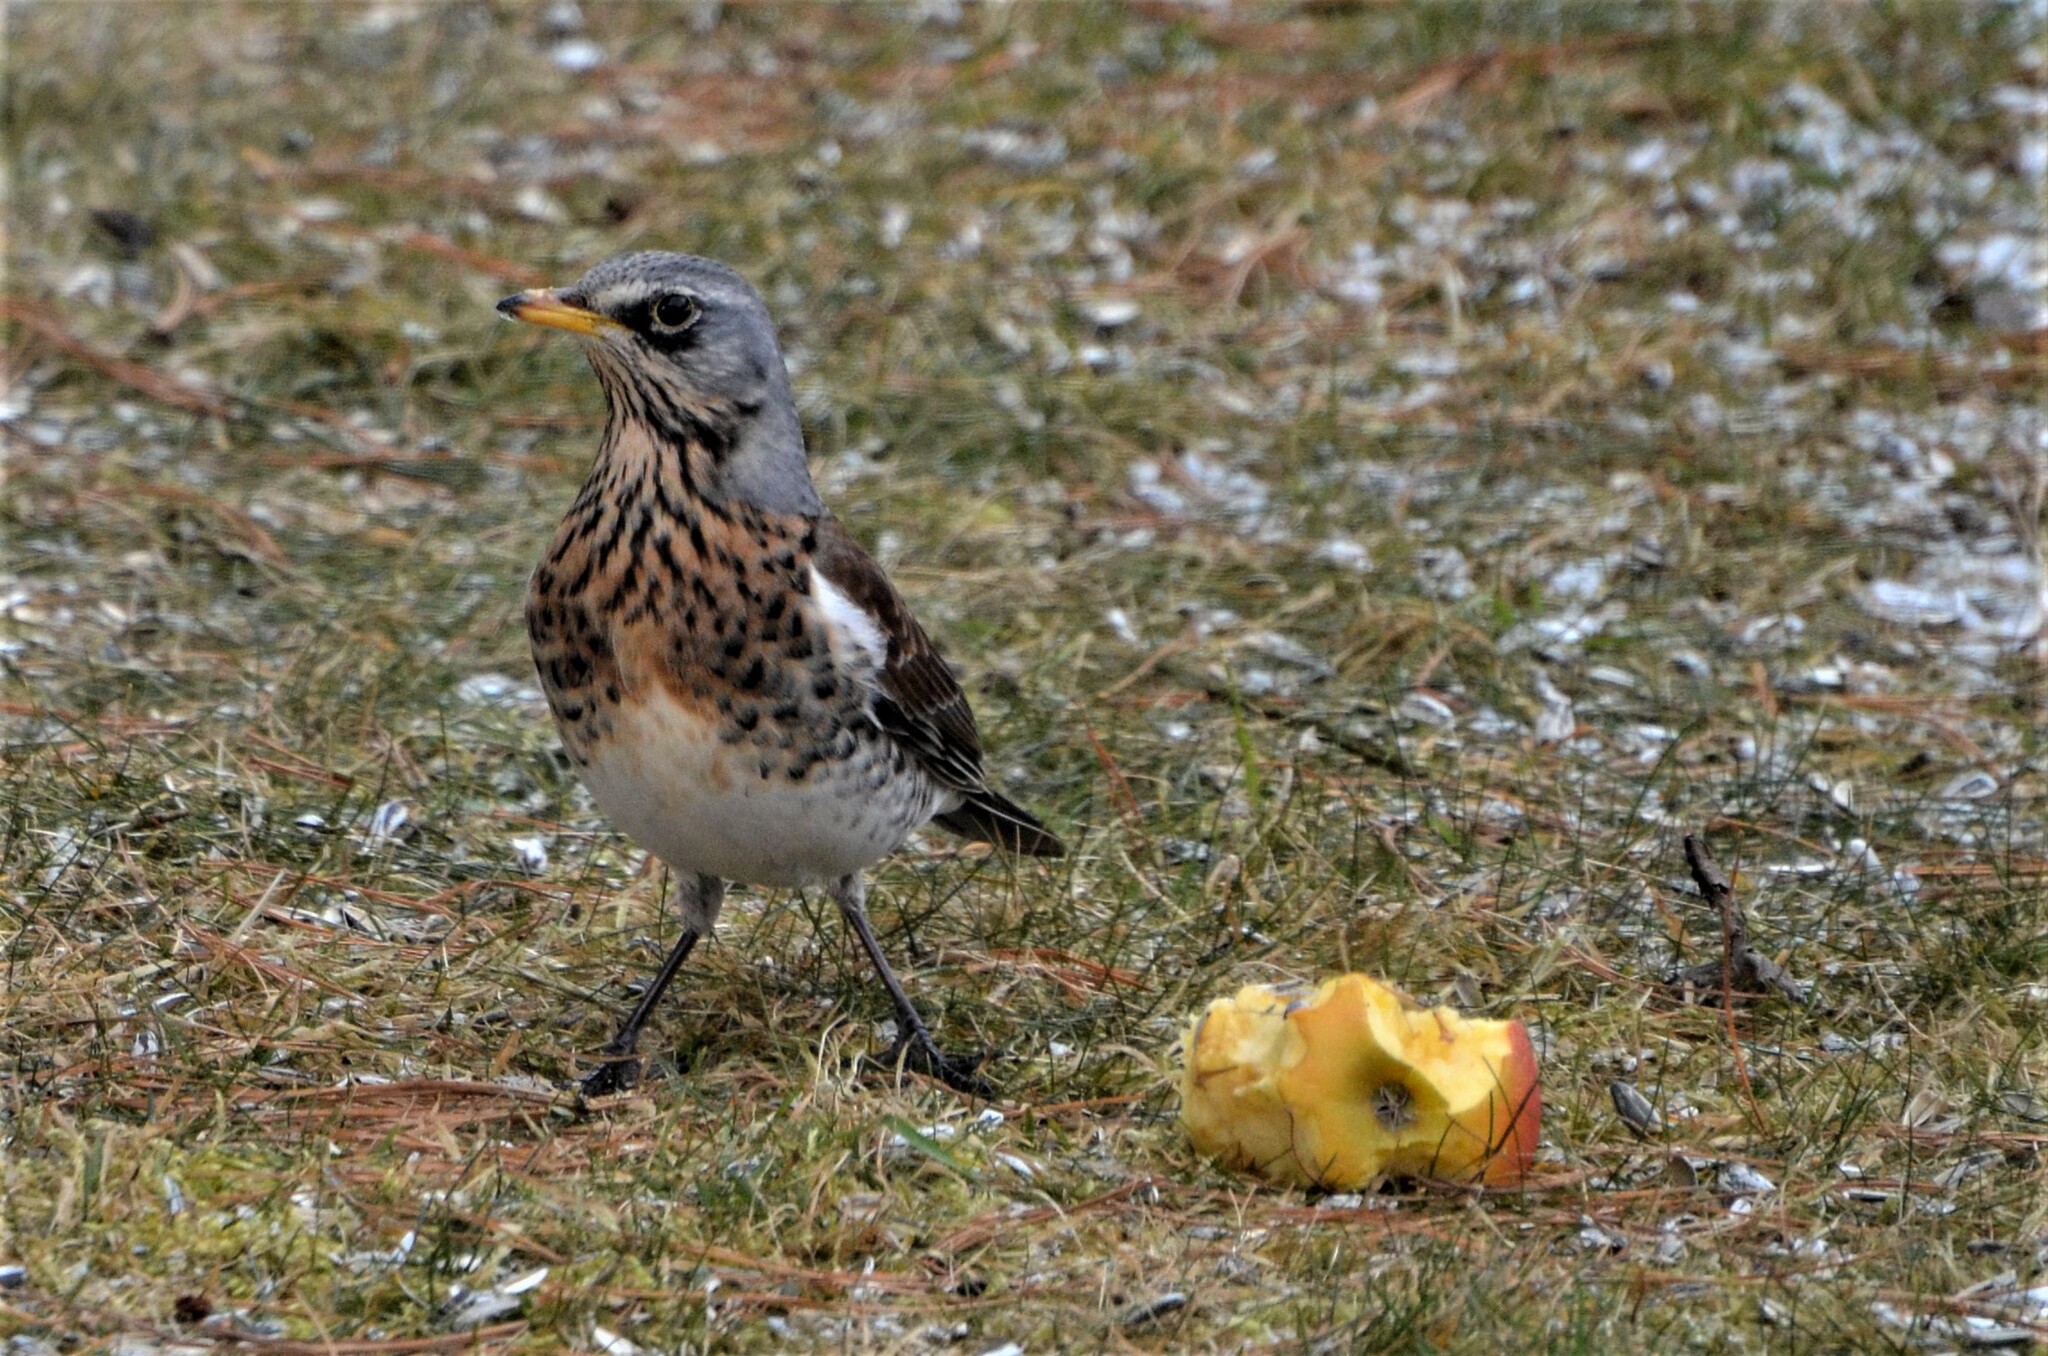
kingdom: Animalia
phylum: Chordata
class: Aves
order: Passeriformes
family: Turdidae
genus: Turdus
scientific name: Turdus pilaris
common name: Fieldfare
